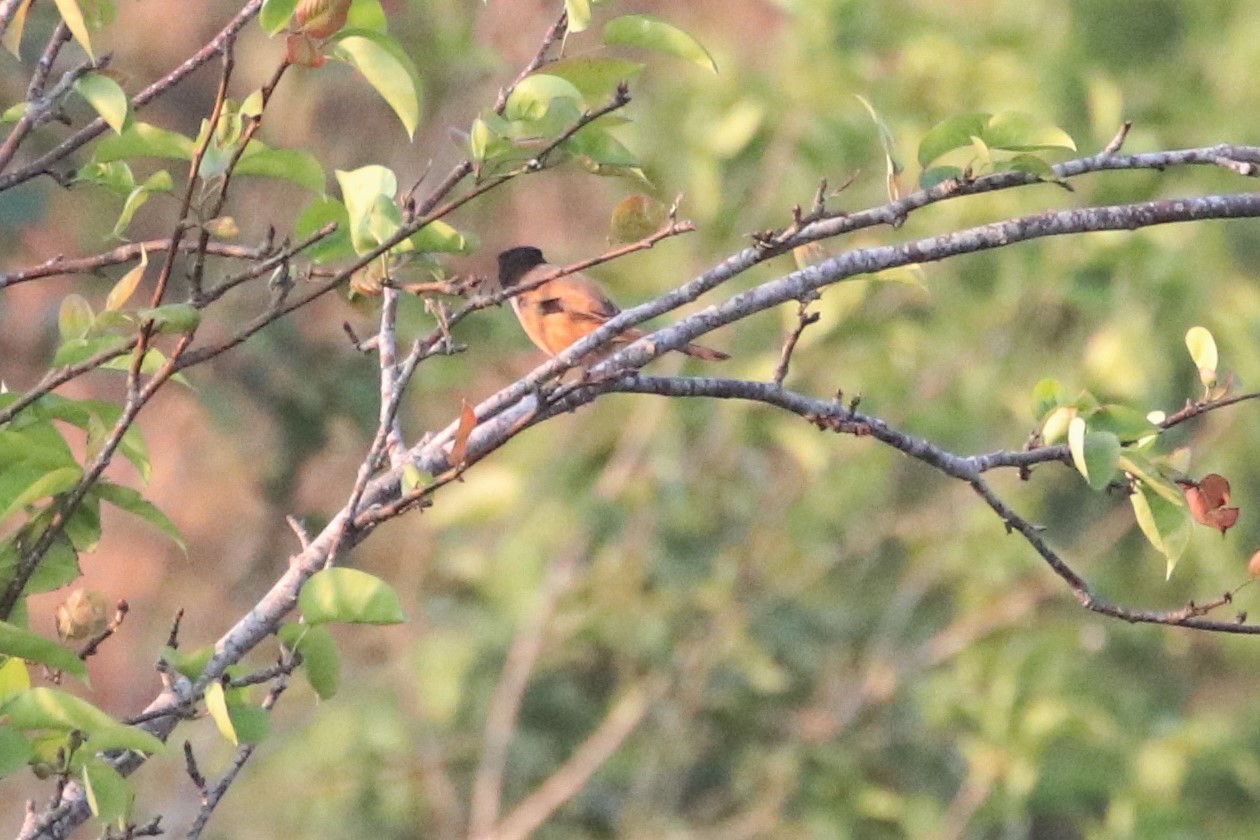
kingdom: Animalia
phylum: Chordata
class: Aves
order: Passeriformes
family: Laniidae
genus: Lanius
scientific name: Lanius schach
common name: Long-tailed shrike
